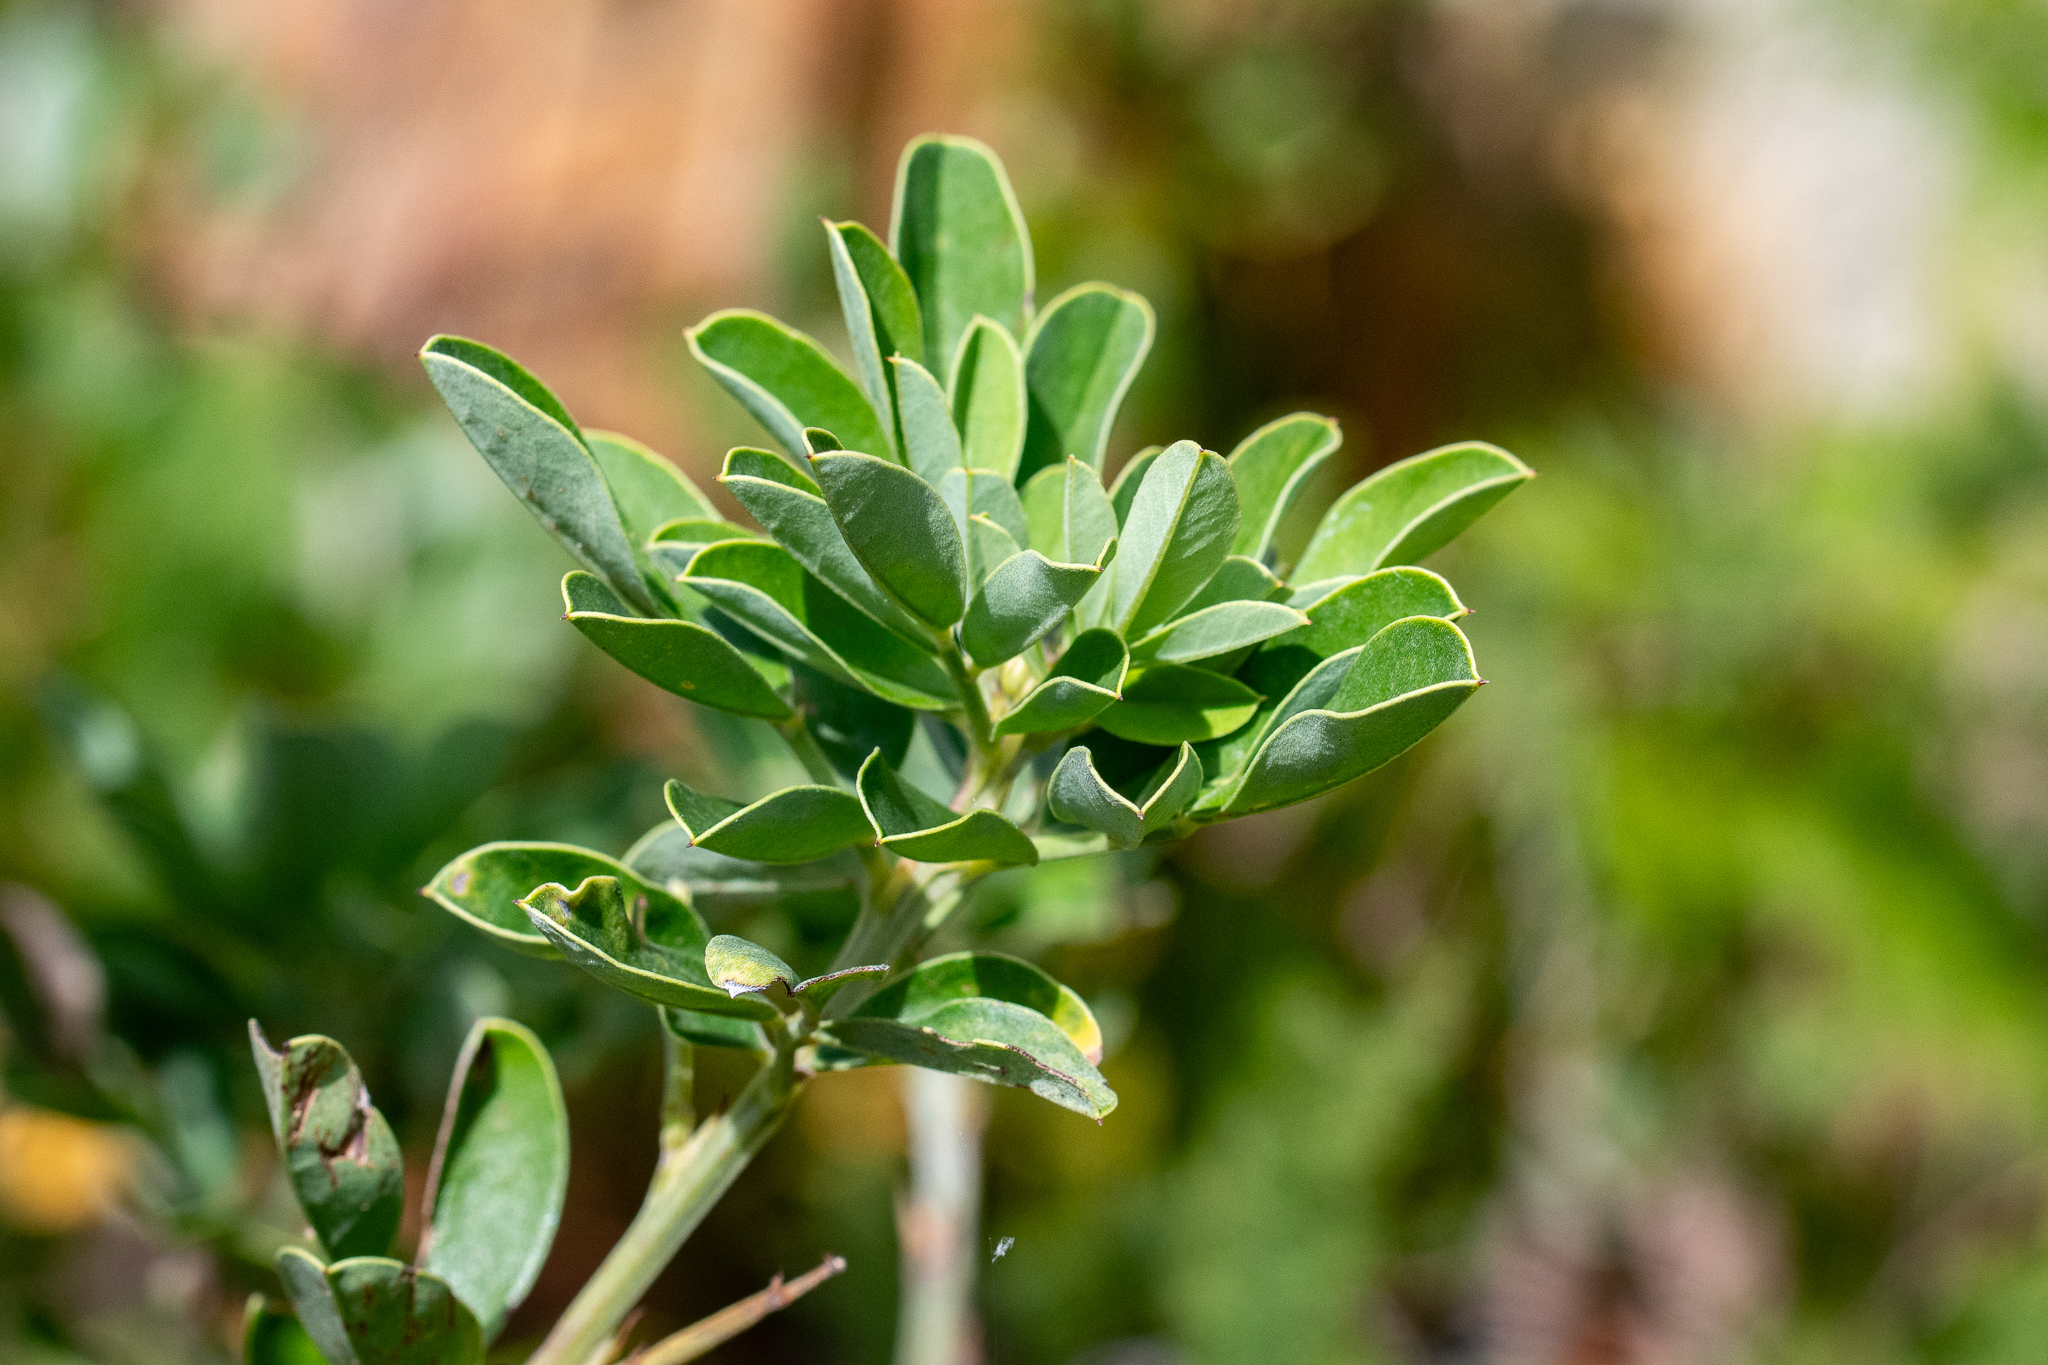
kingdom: Plantae
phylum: Tracheophyta
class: Magnoliopsida
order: Fabales
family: Fabaceae
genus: Indigofera
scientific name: Indigofera cytisoides
